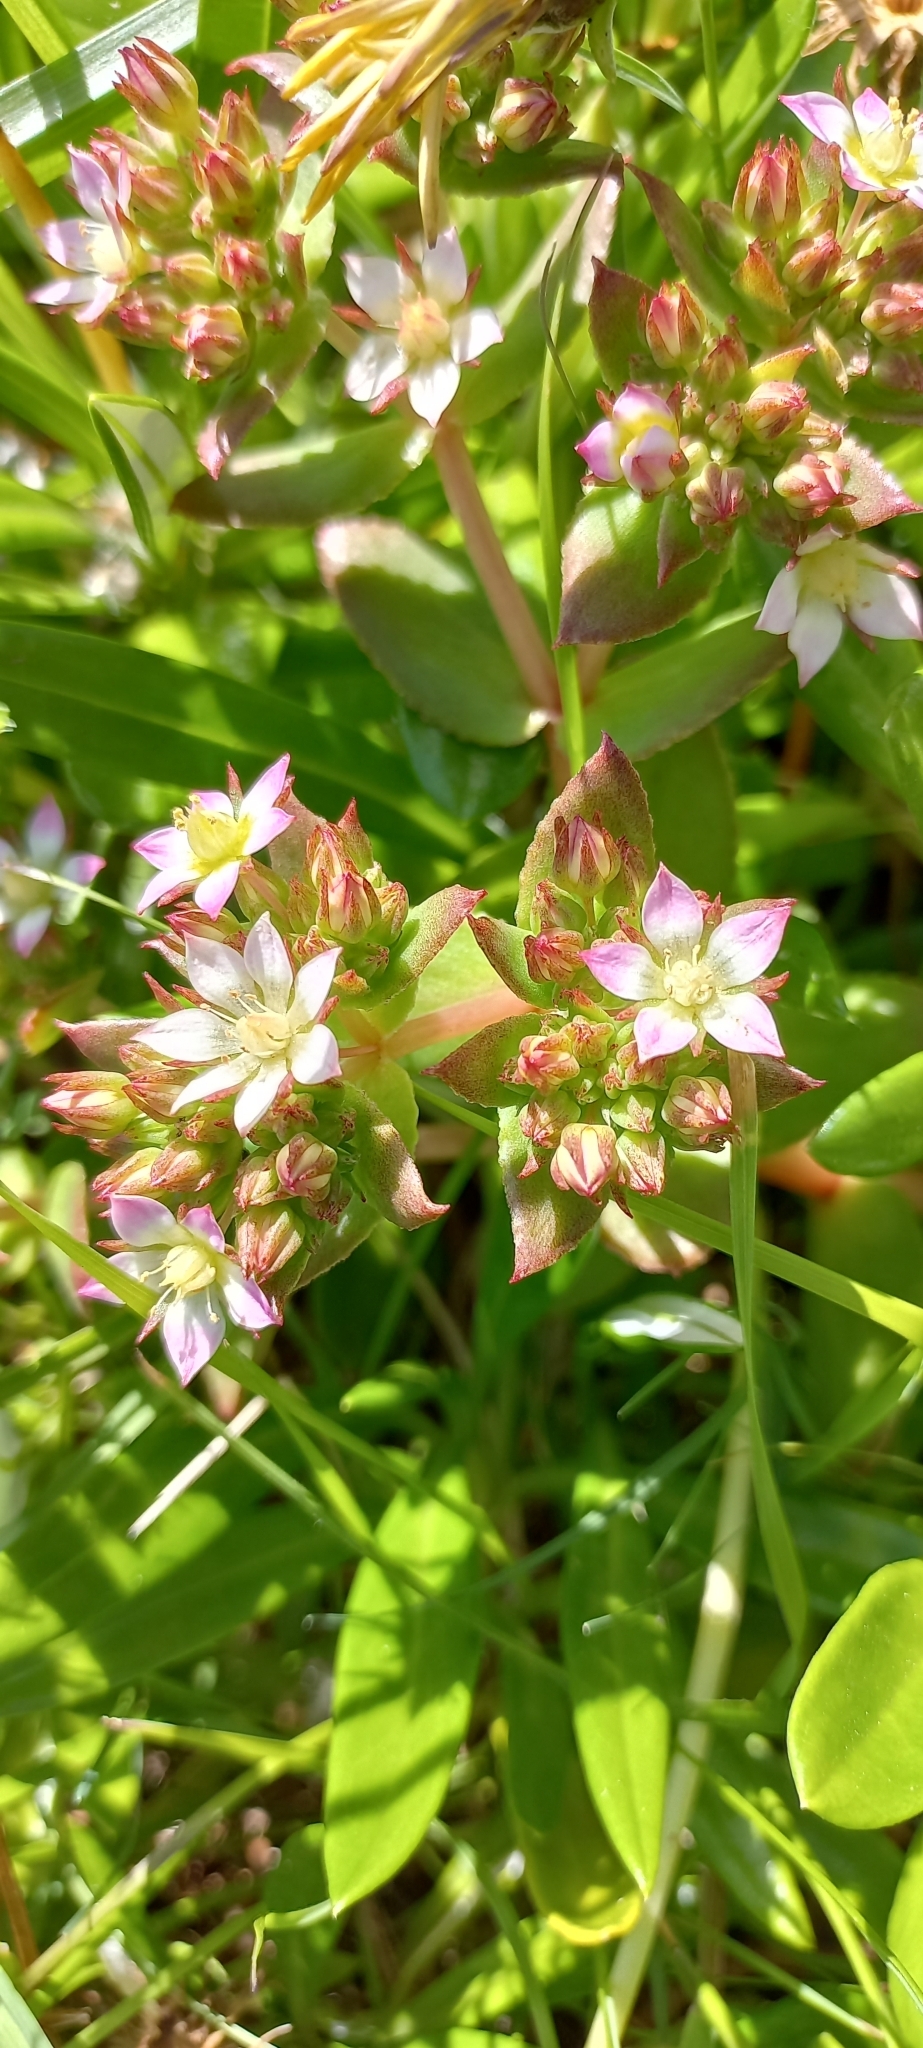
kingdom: Plantae
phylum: Tracheophyta
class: Magnoliopsida
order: Saxifragales
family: Crassulaceae
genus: Crassula
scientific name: Crassula pellucida
